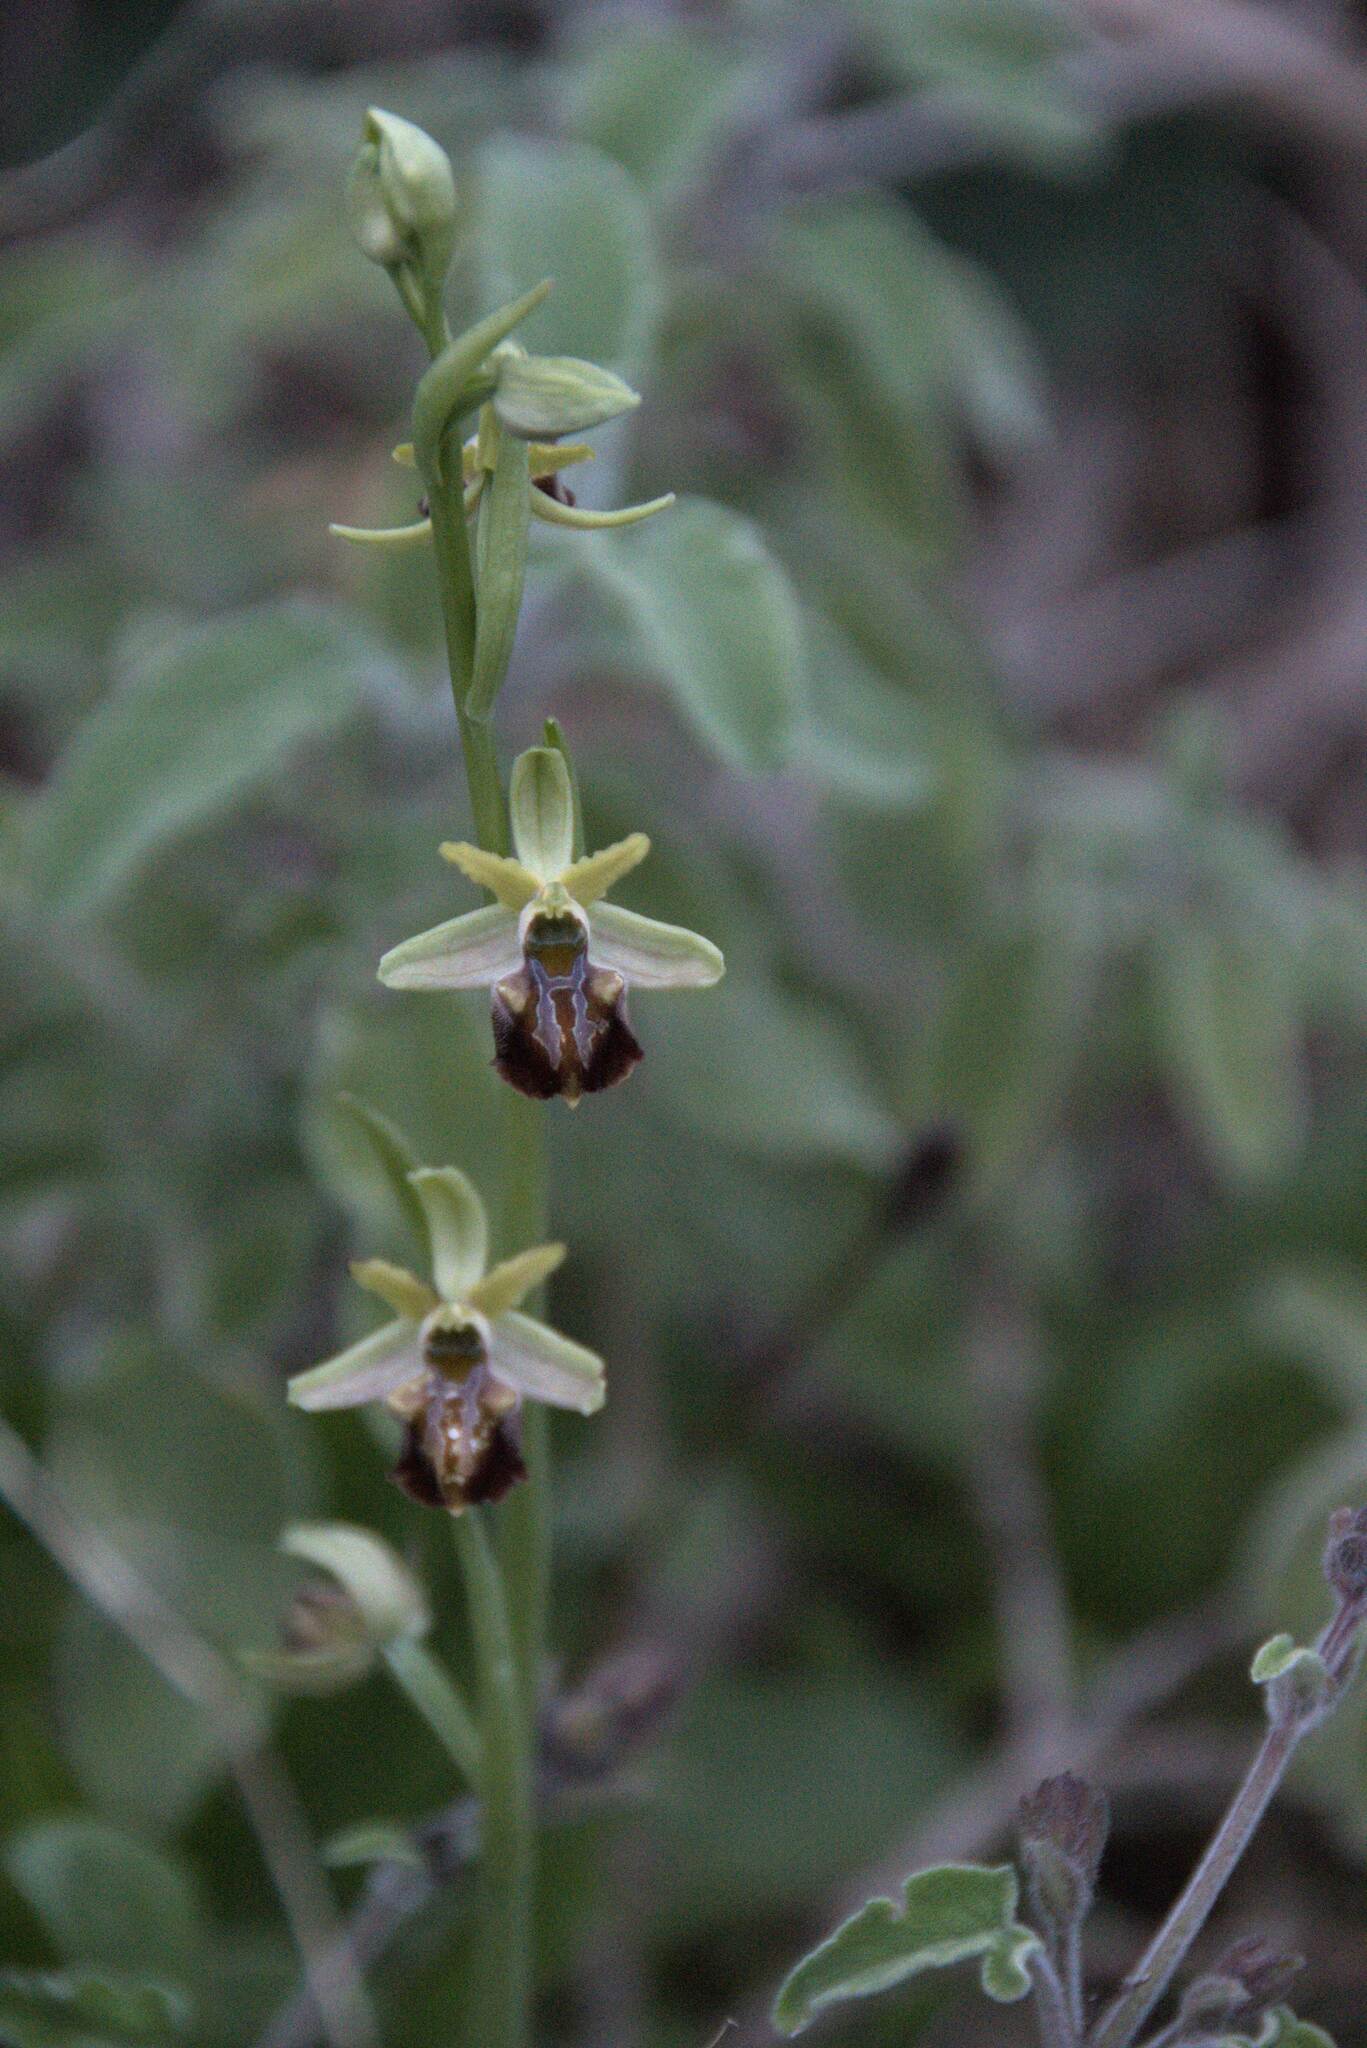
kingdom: Plantae
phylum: Tracheophyta
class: Liliopsida
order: Asparagales
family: Orchidaceae
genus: Ophrys
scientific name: Ophrys sphegodes
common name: Early spider-orchid
